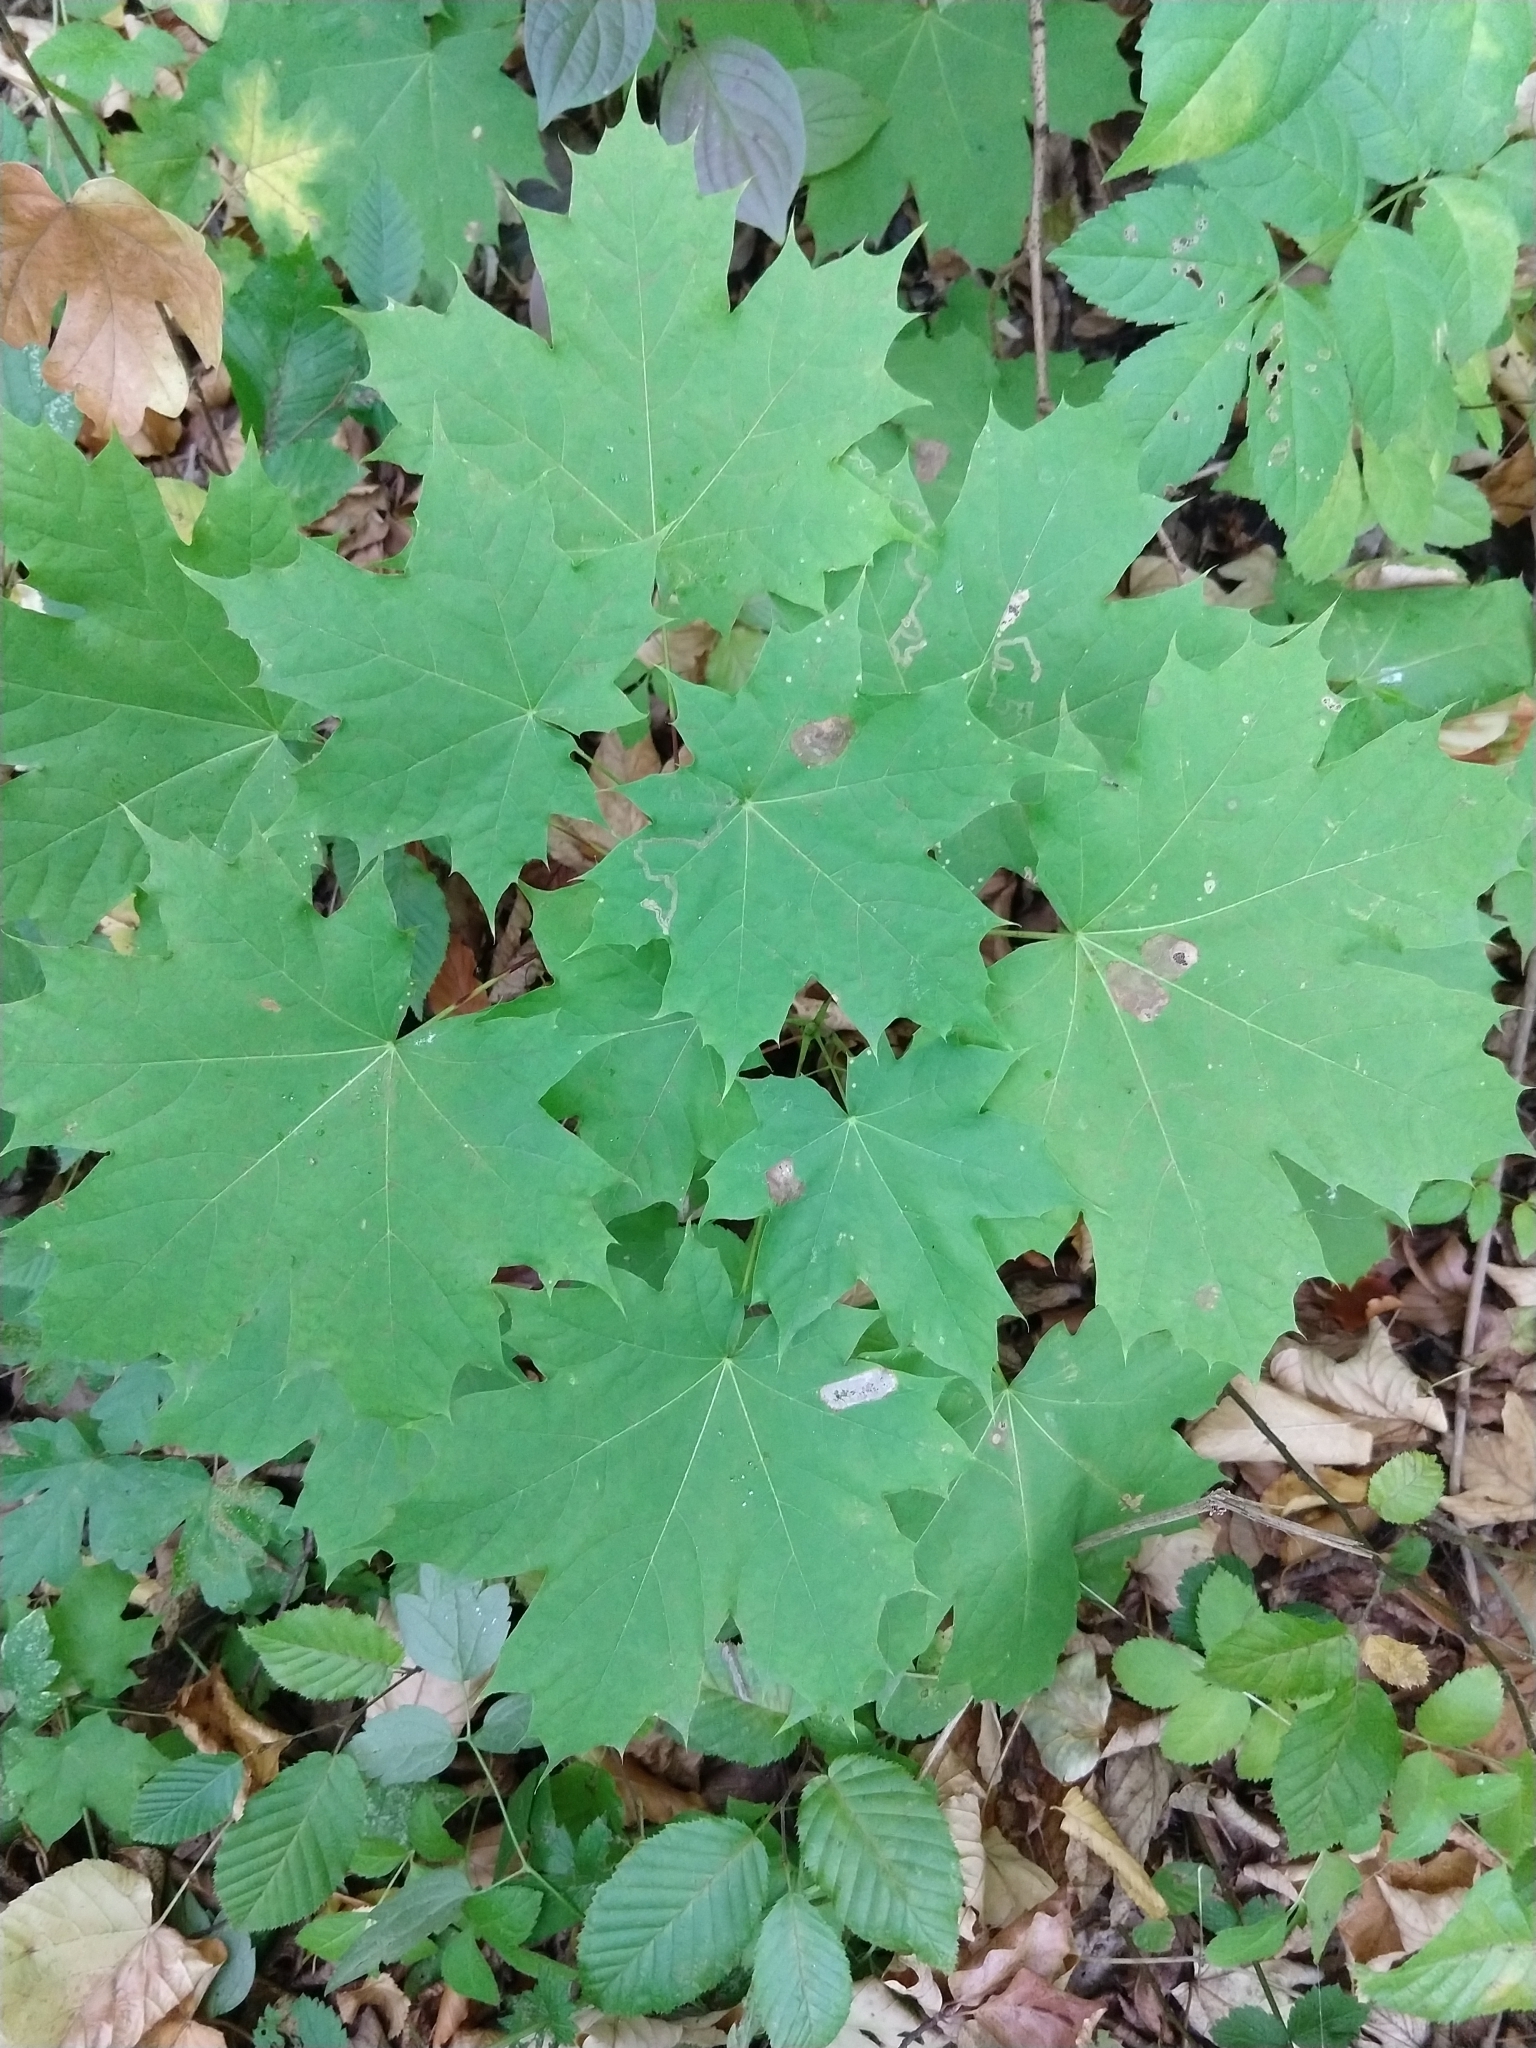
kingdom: Plantae
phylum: Tracheophyta
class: Magnoliopsida
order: Sapindales
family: Sapindaceae
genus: Acer
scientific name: Acer platanoides
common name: Norway maple
